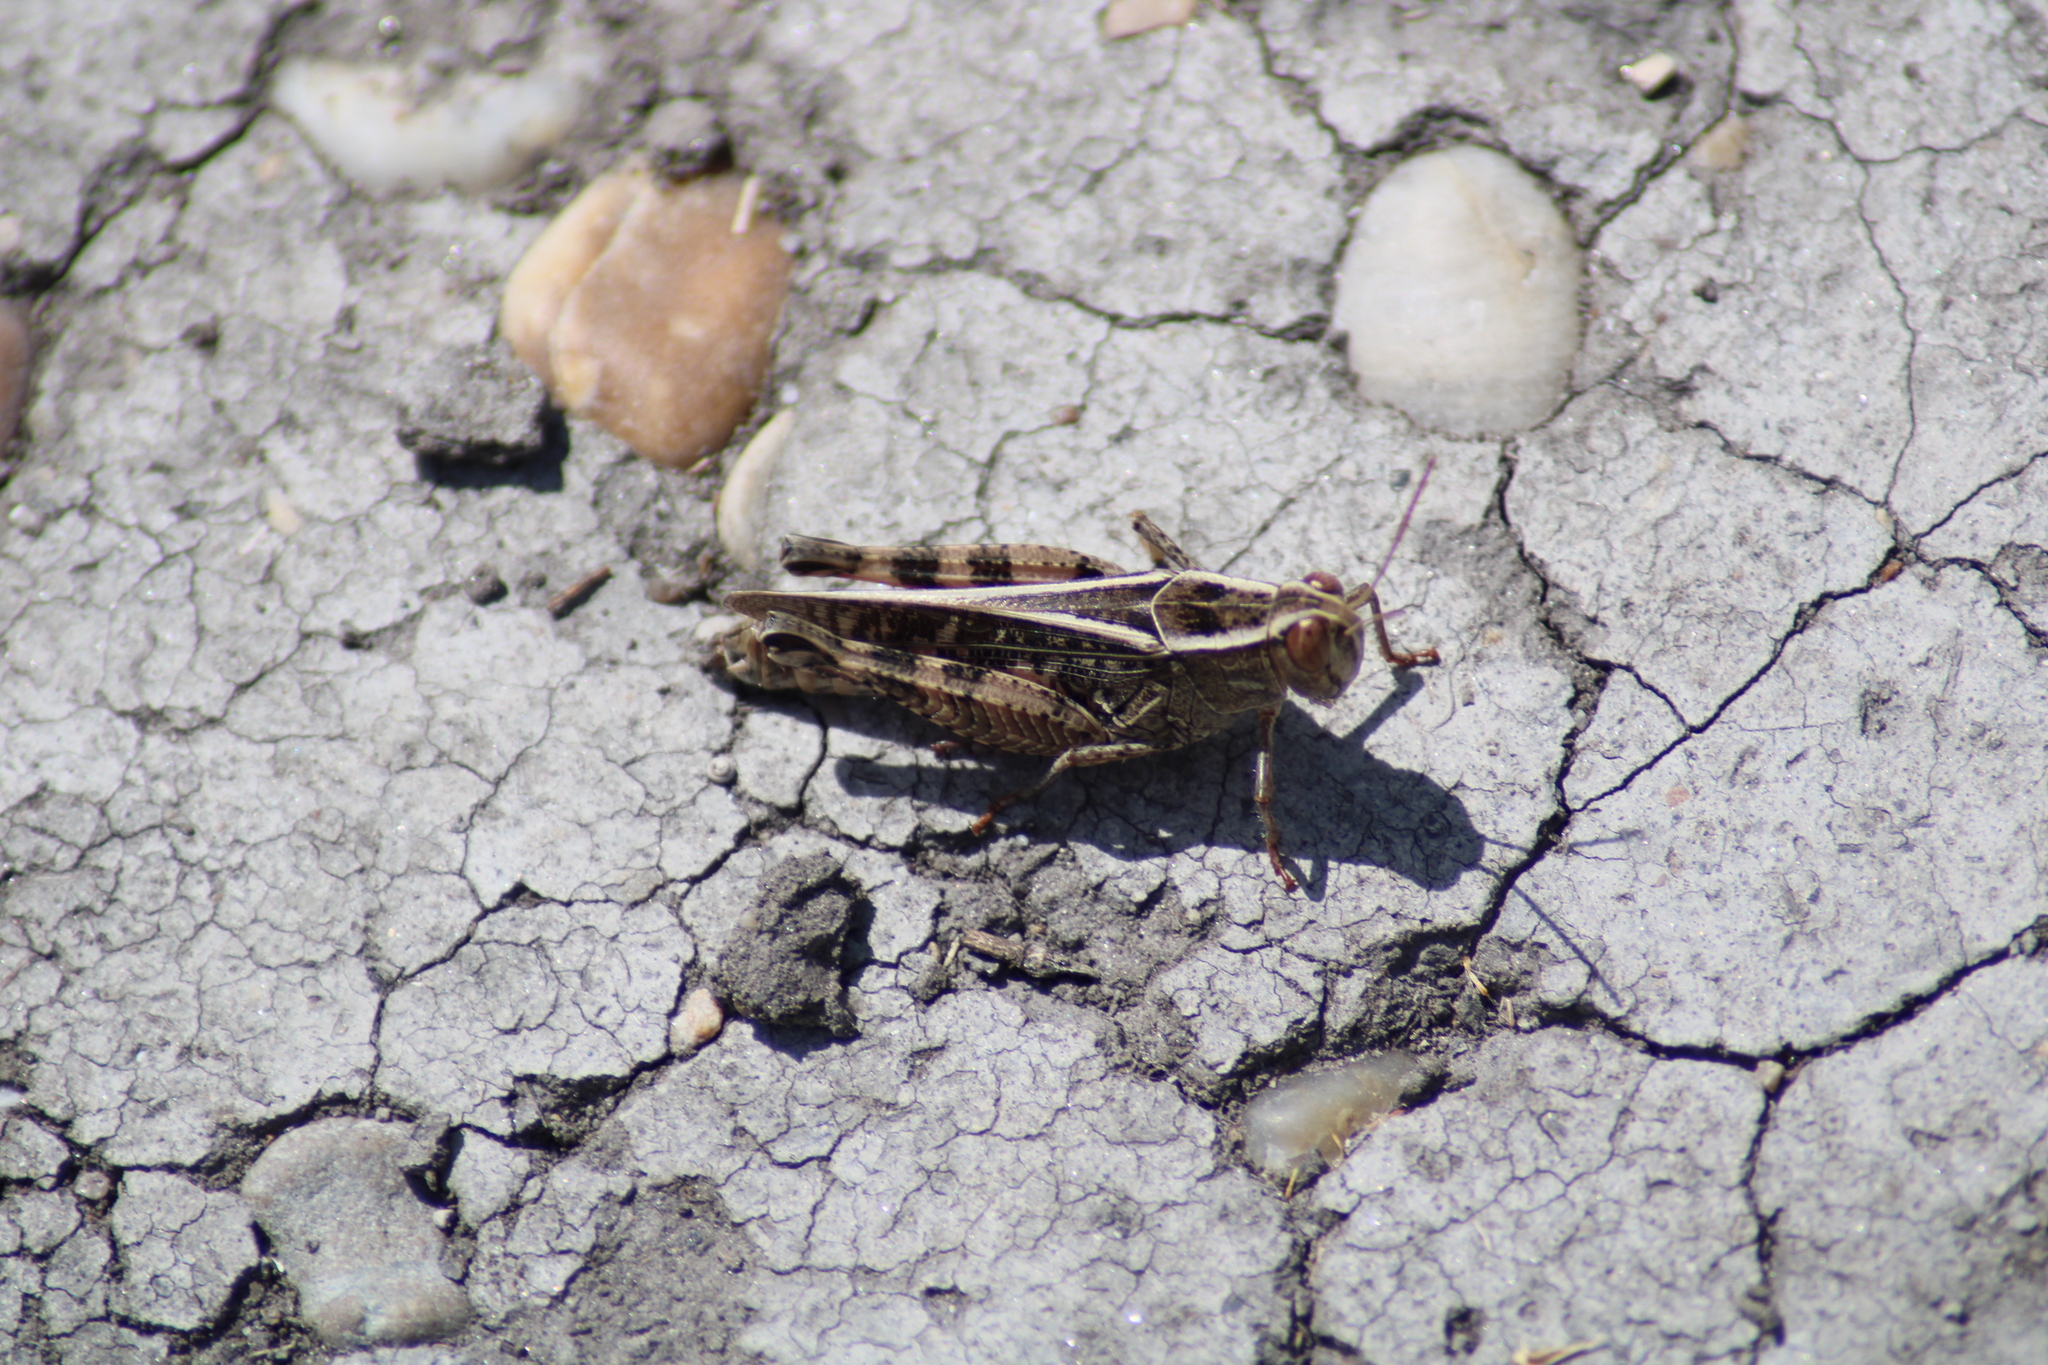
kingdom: Animalia
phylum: Arthropoda
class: Insecta
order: Orthoptera
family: Acrididae
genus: Calliptamus
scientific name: Calliptamus italicus
